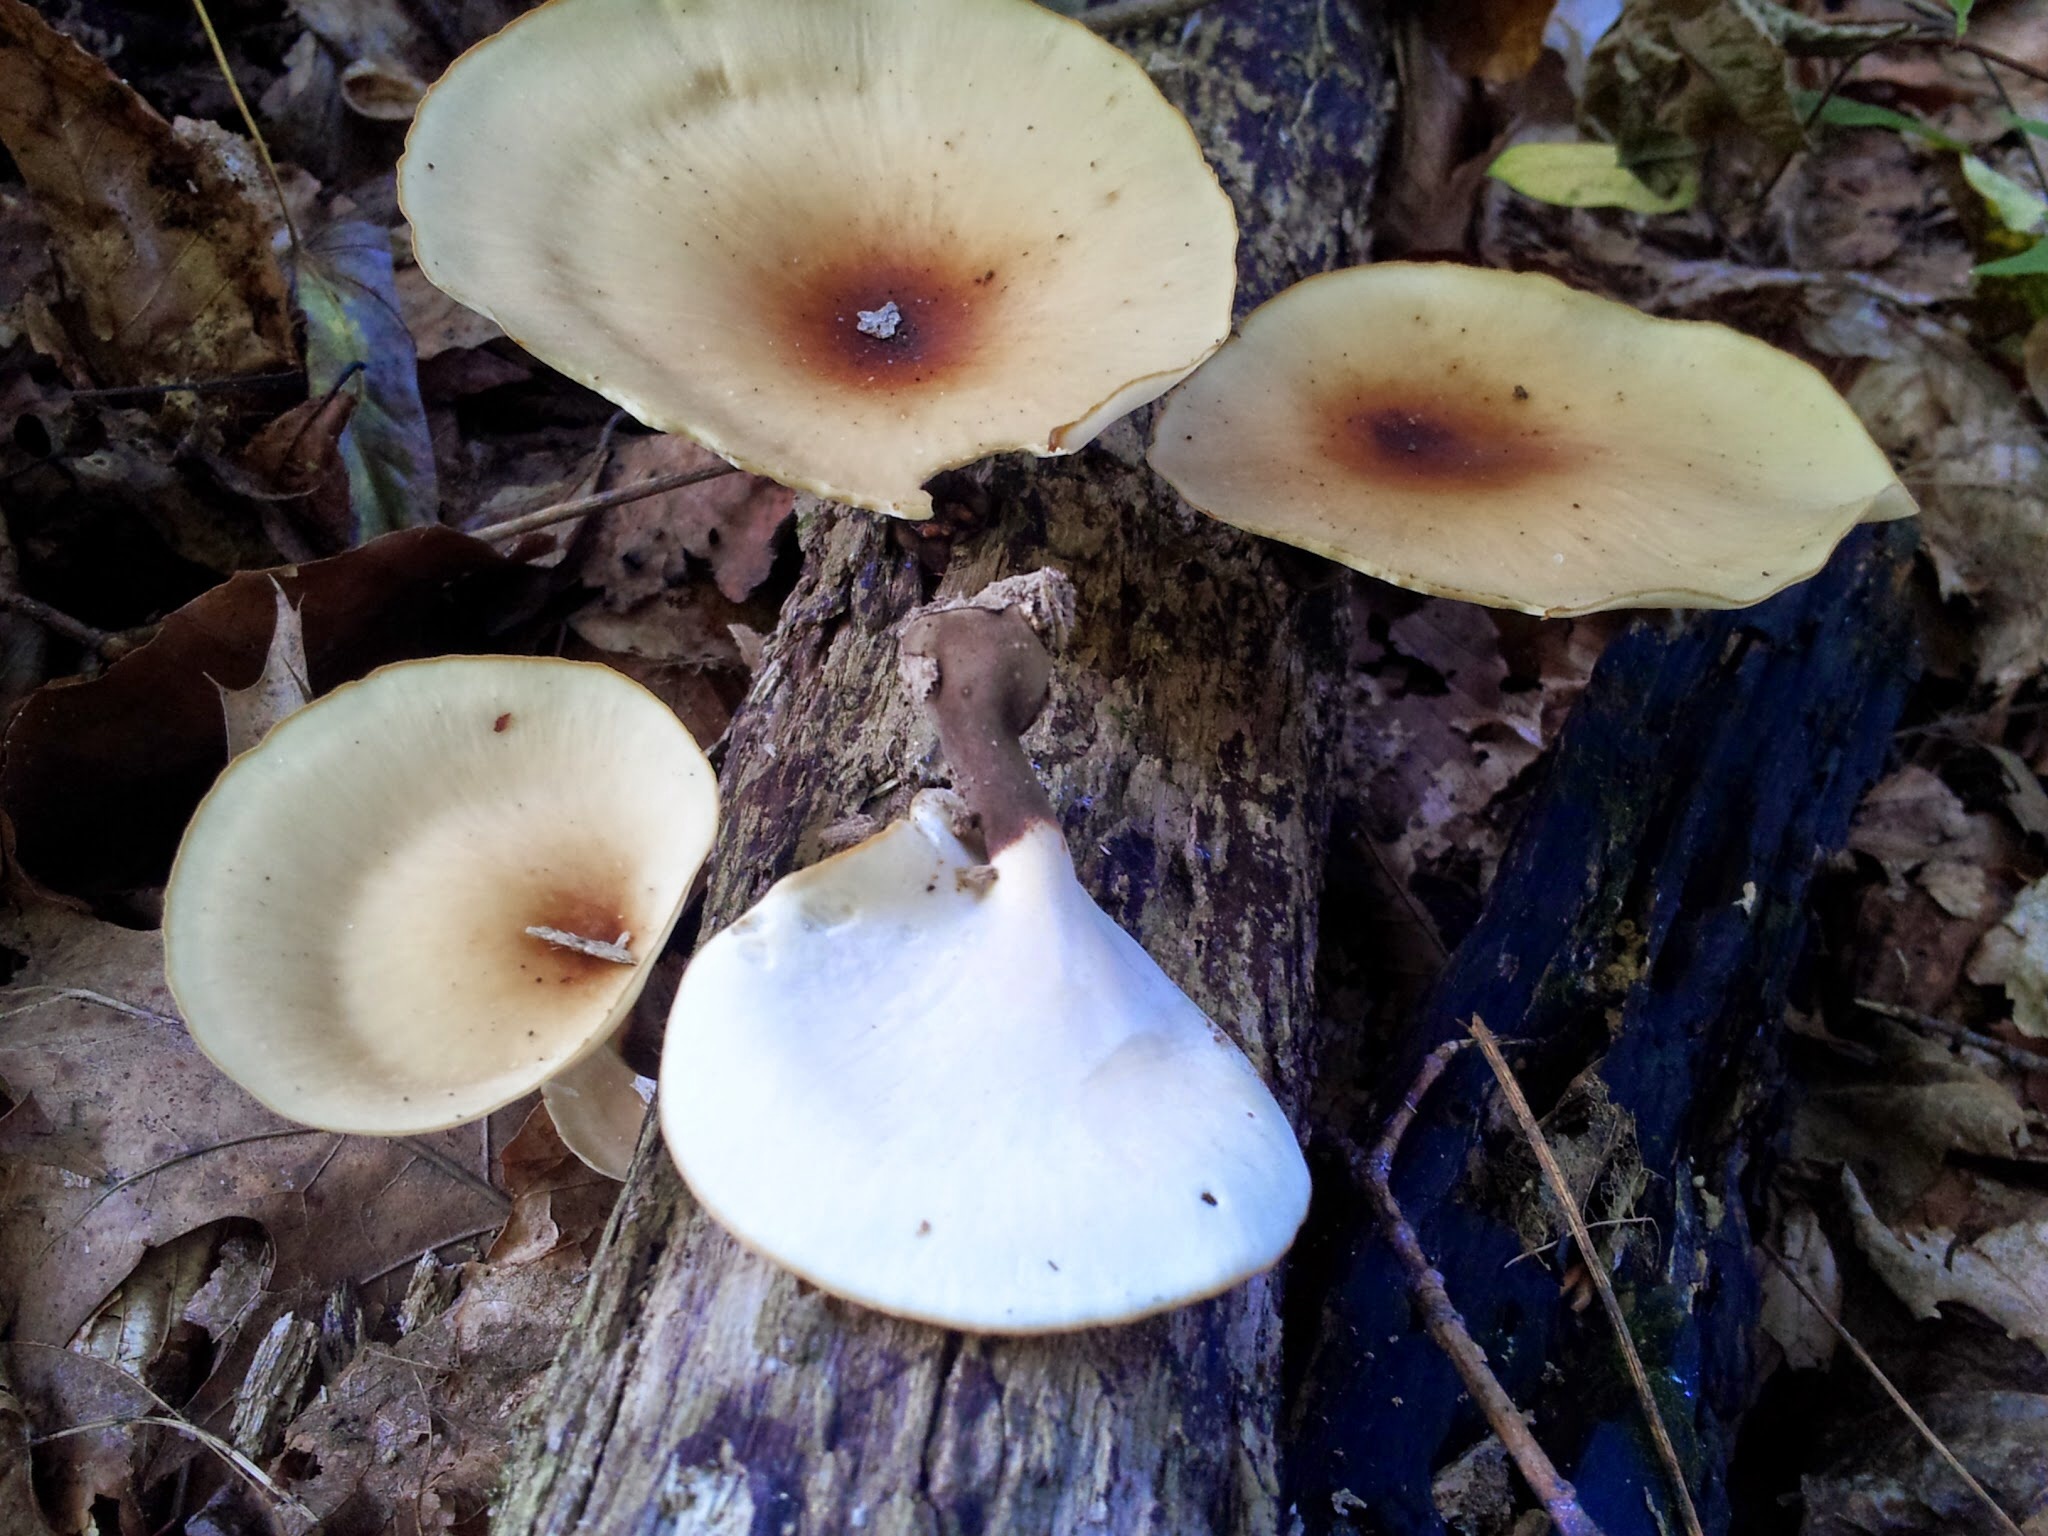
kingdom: Fungi
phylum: Basidiomycota
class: Agaricomycetes
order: Polyporales
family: Polyporaceae
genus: Picipes
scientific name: Picipes badius
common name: Bay polypore
